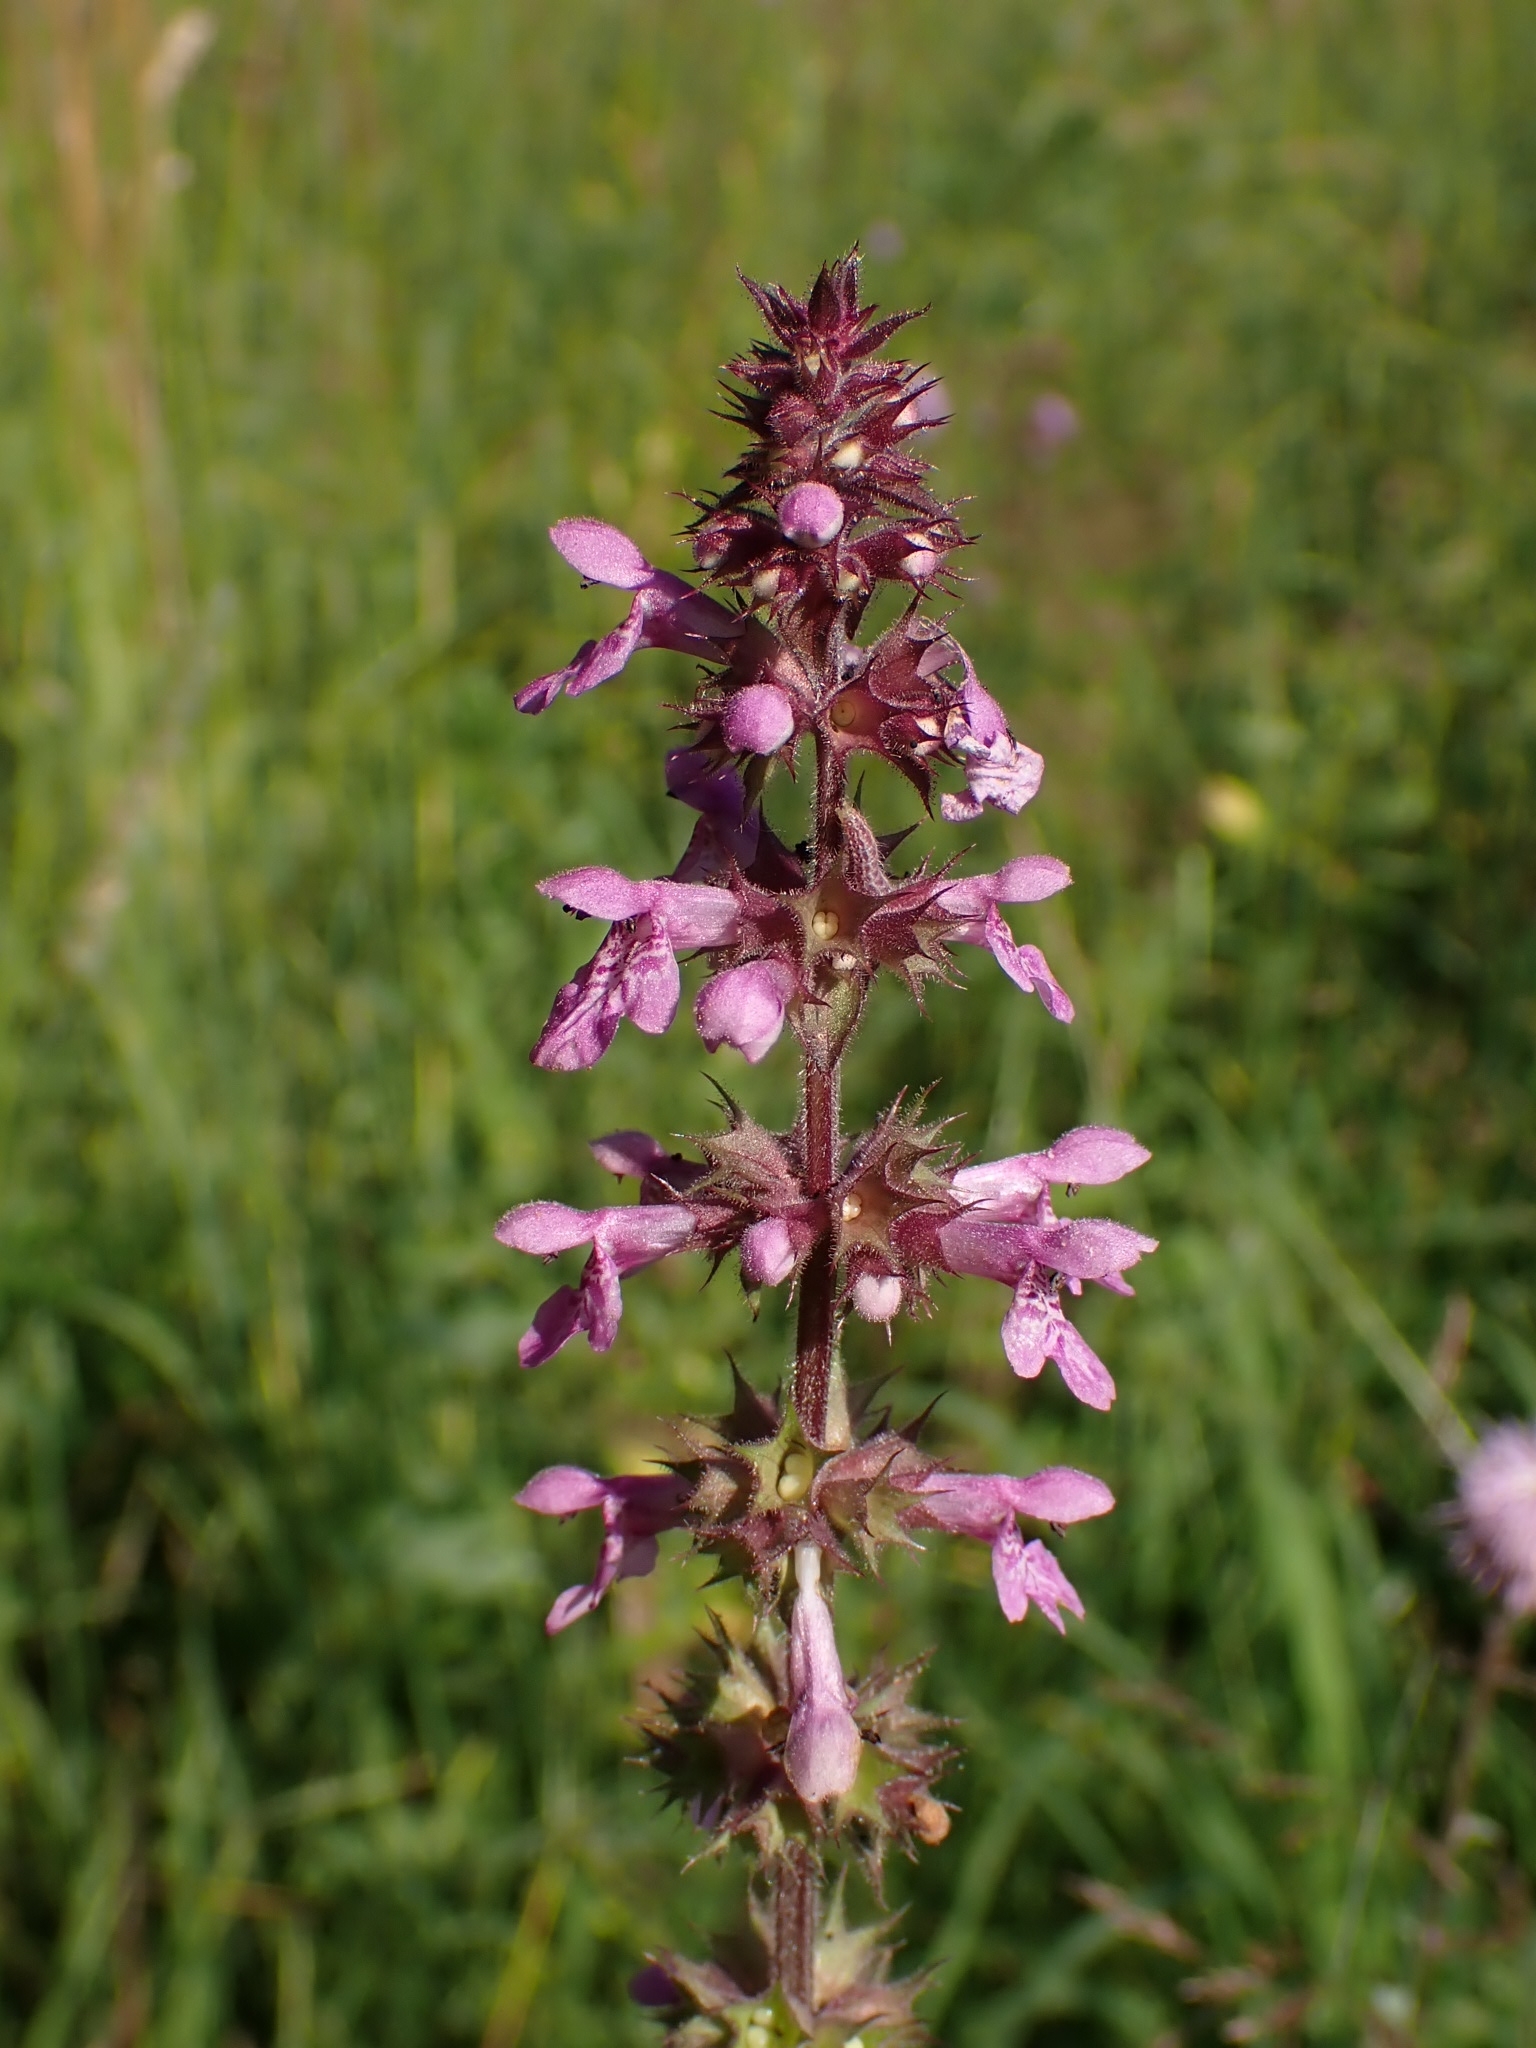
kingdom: Plantae
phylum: Tracheophyta
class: Magnoliopsida
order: Lamiales
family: Lamiaceae
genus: Stachys
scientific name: Stachys palustris
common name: Marsh woundwort
